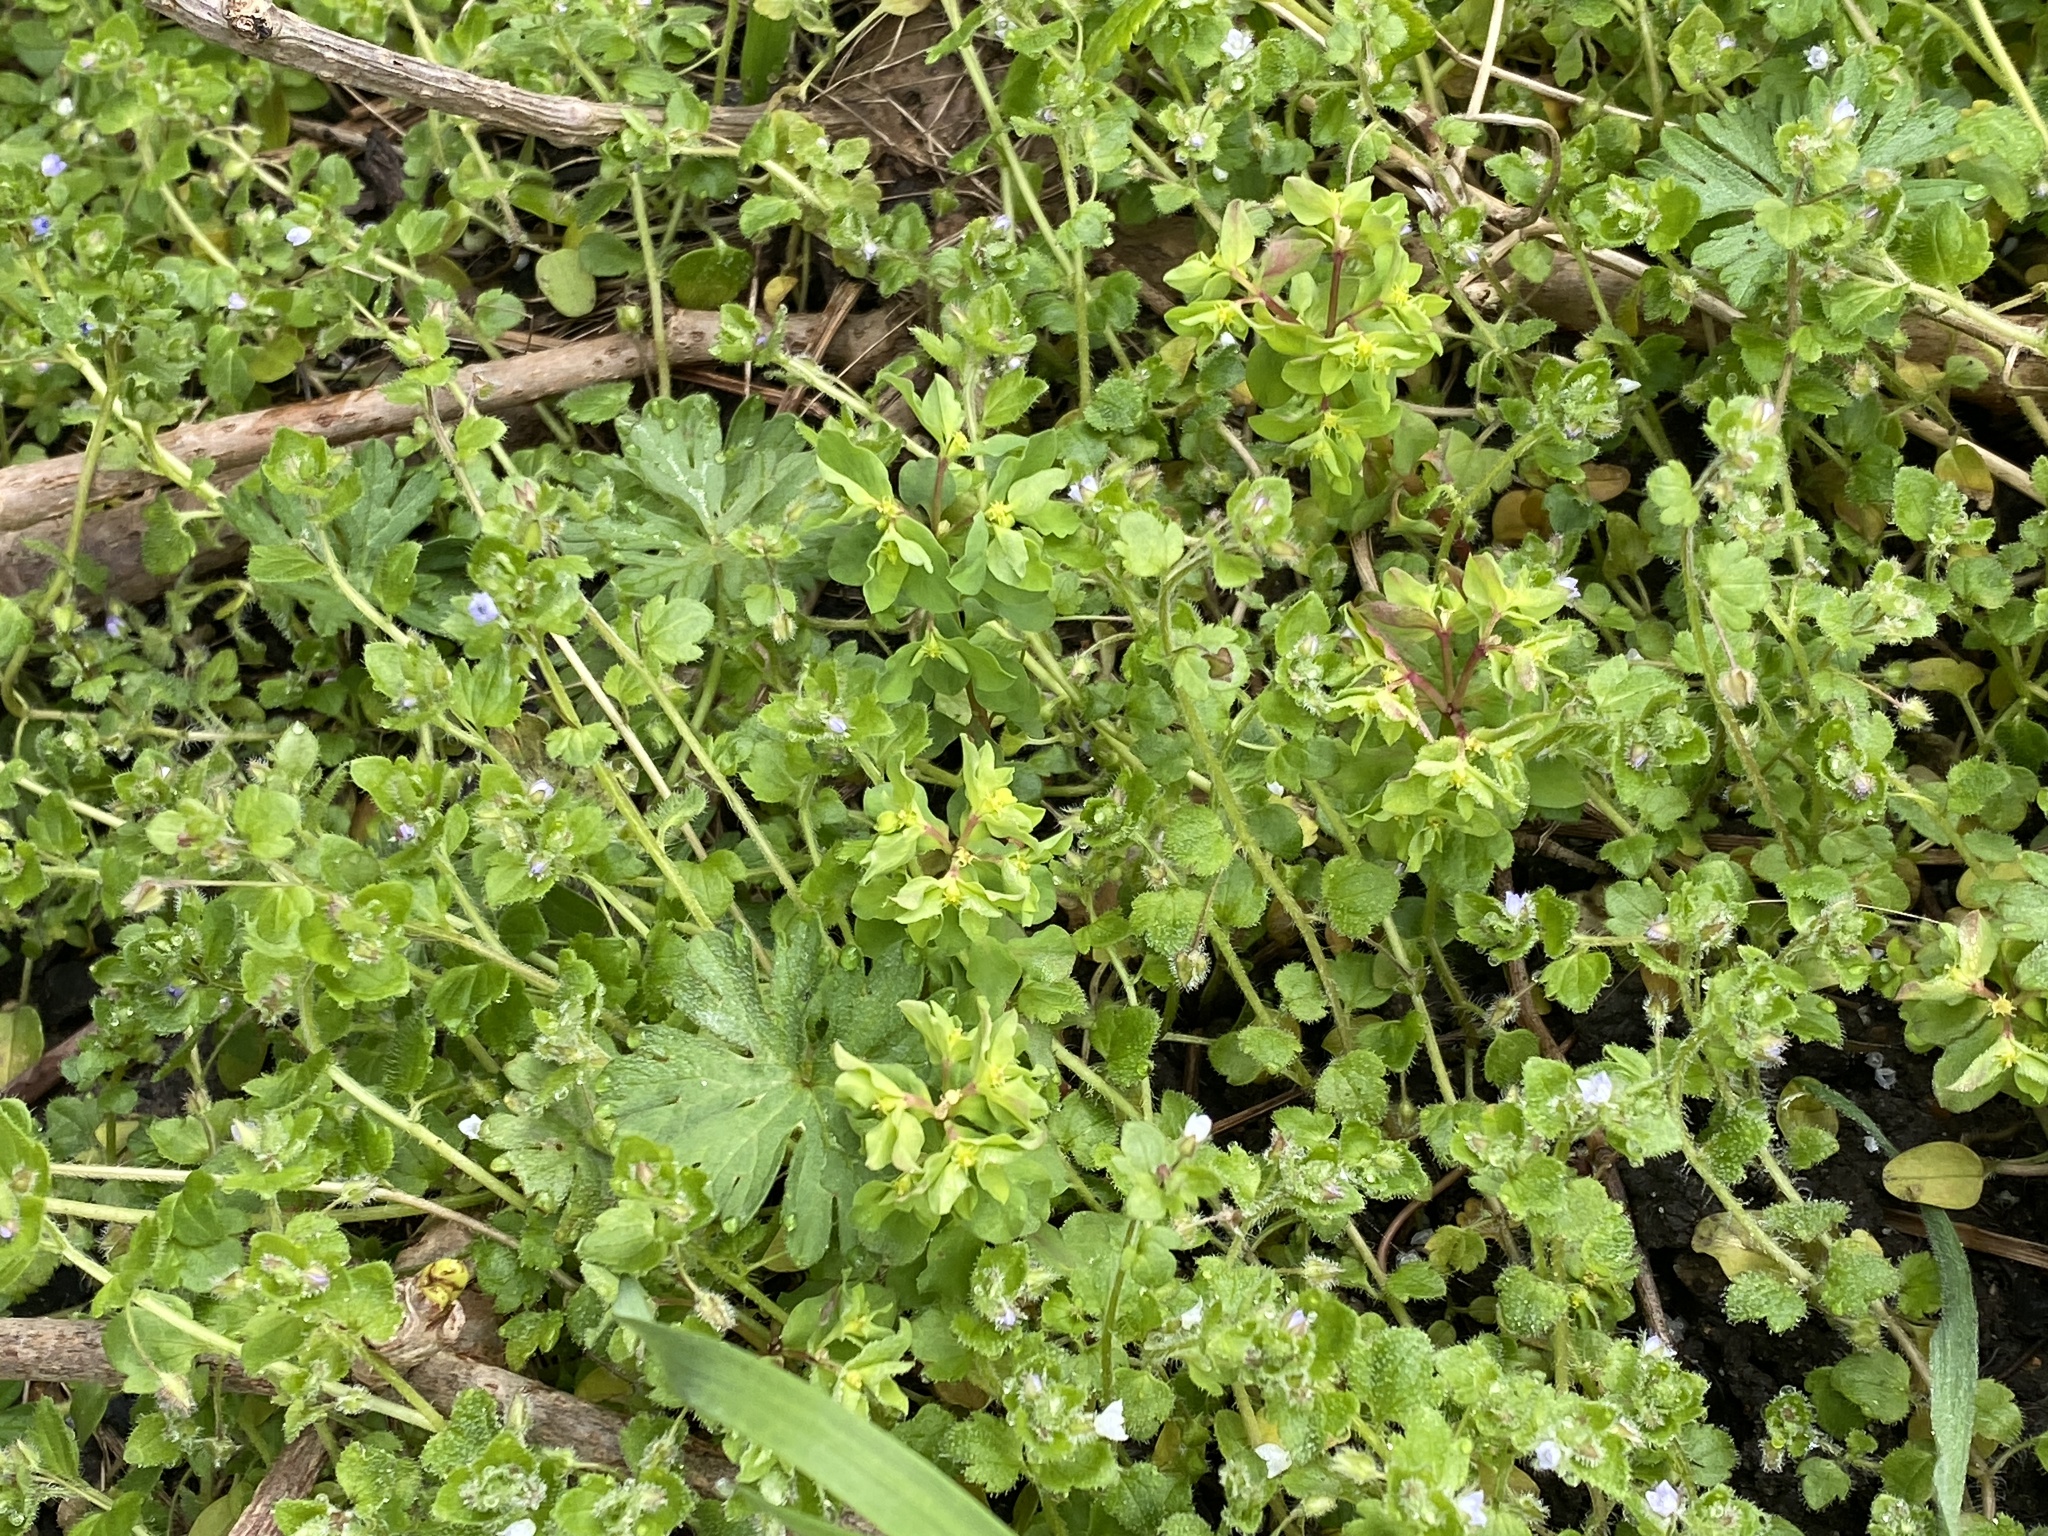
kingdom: Plantae
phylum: Tracheophyta
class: Magnoliopsida
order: Malpighiales
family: Euphorbiaceae
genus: Euphorbia
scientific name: Euphorbia peplus
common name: Petty spurge
